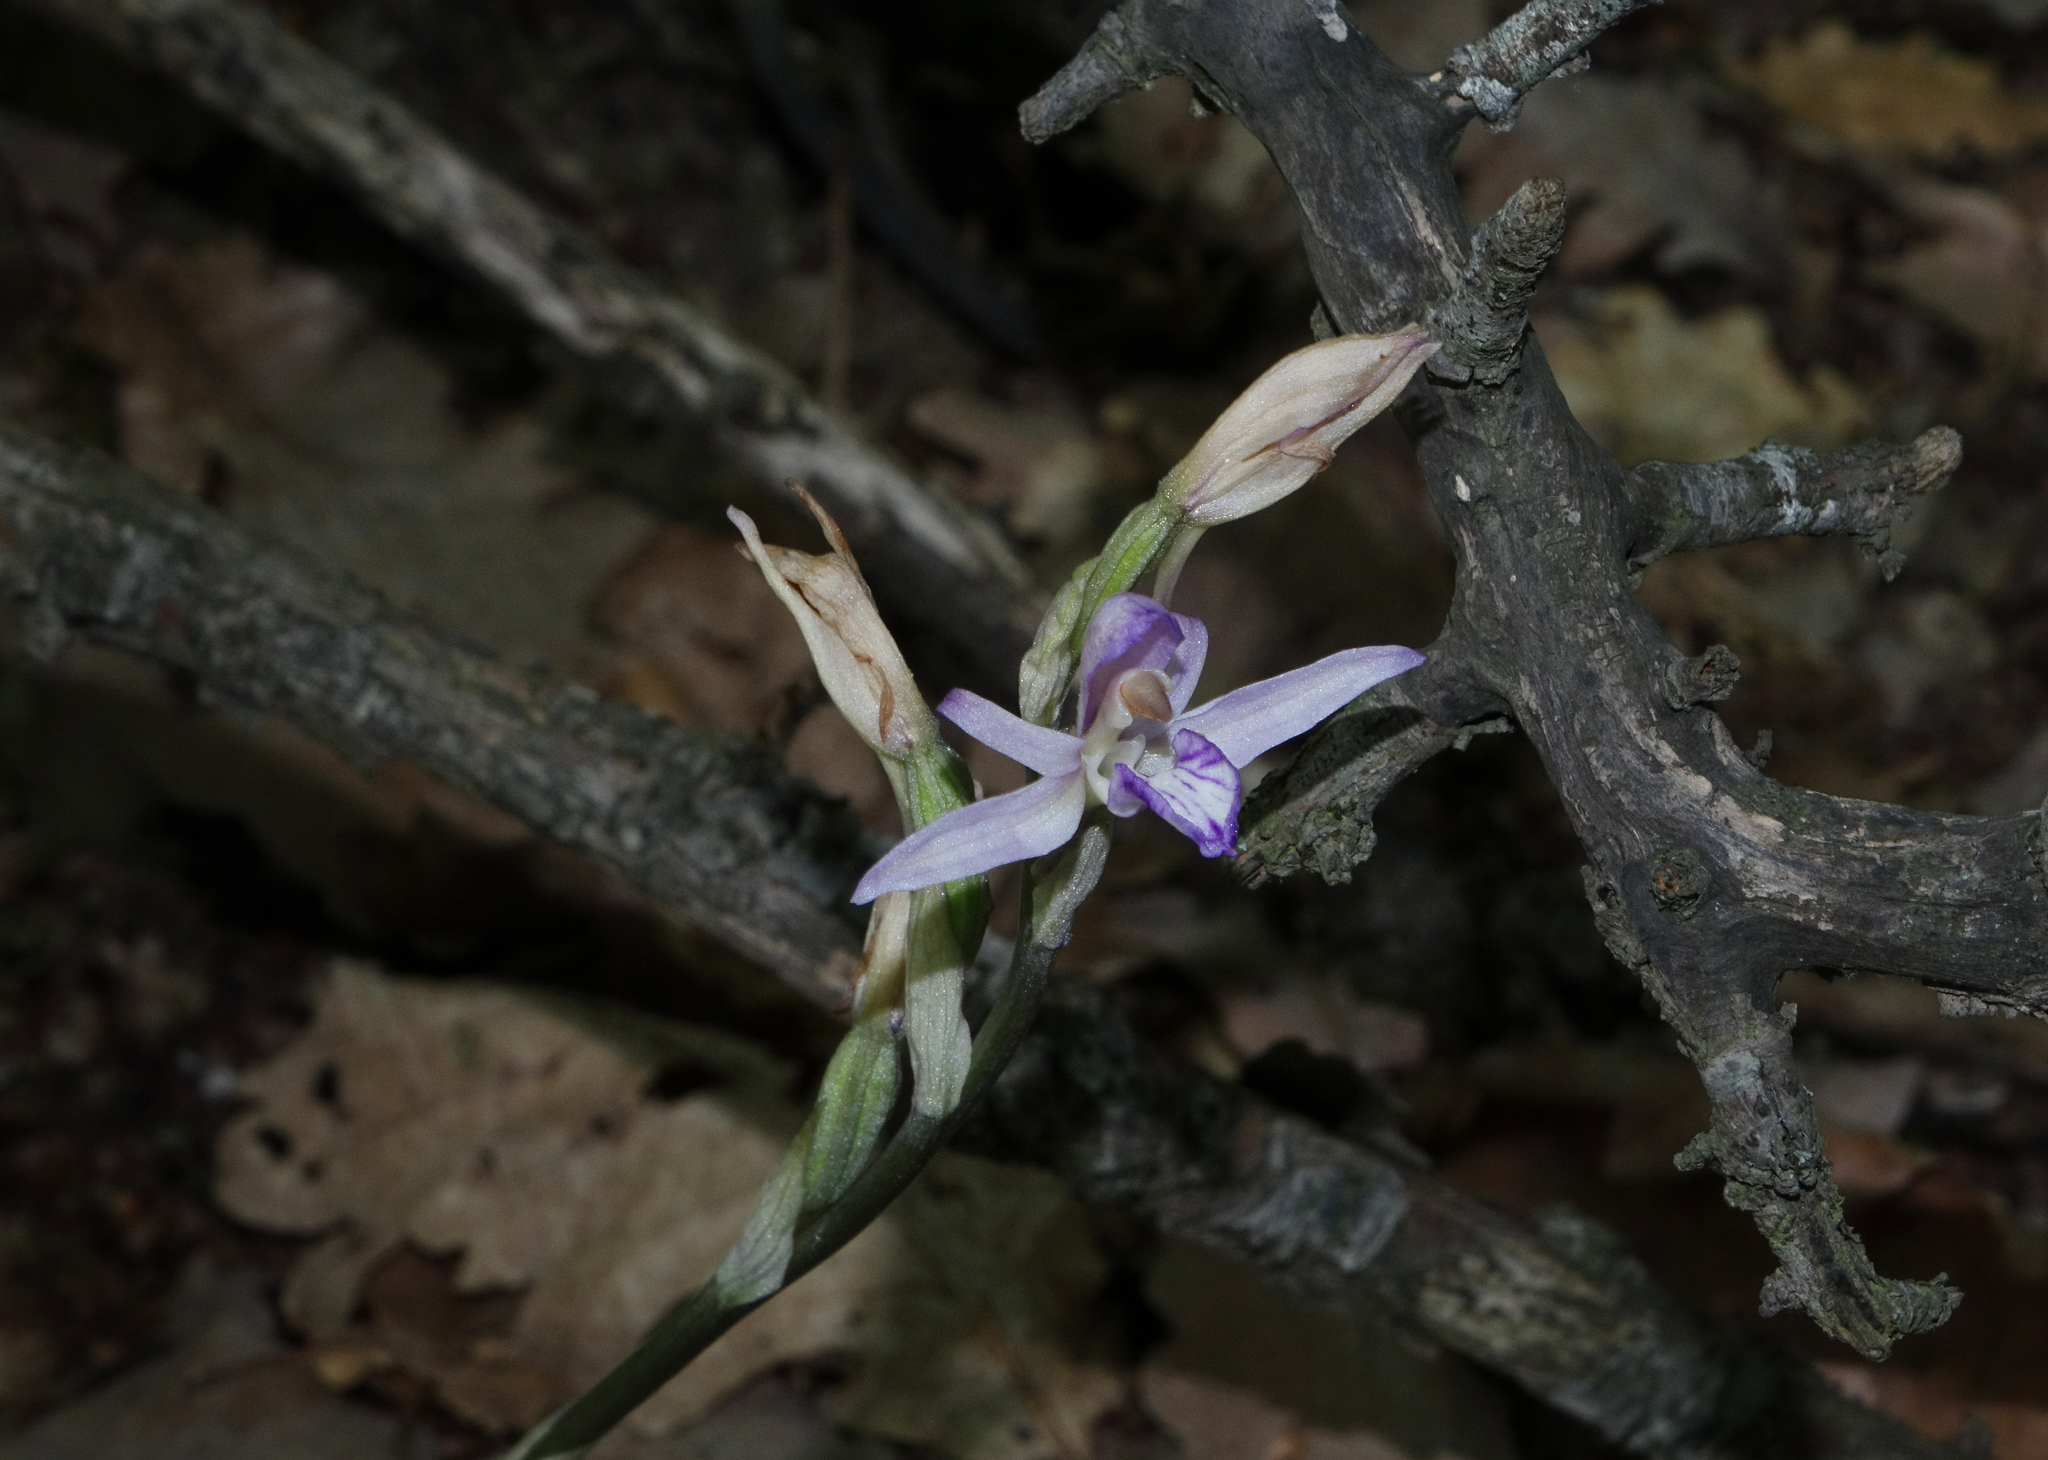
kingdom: Plantae
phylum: Tracheophyta
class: Liliopsida
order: Asparagales
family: Orchidaceae
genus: Limodorum
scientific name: Limodorum abortivum
